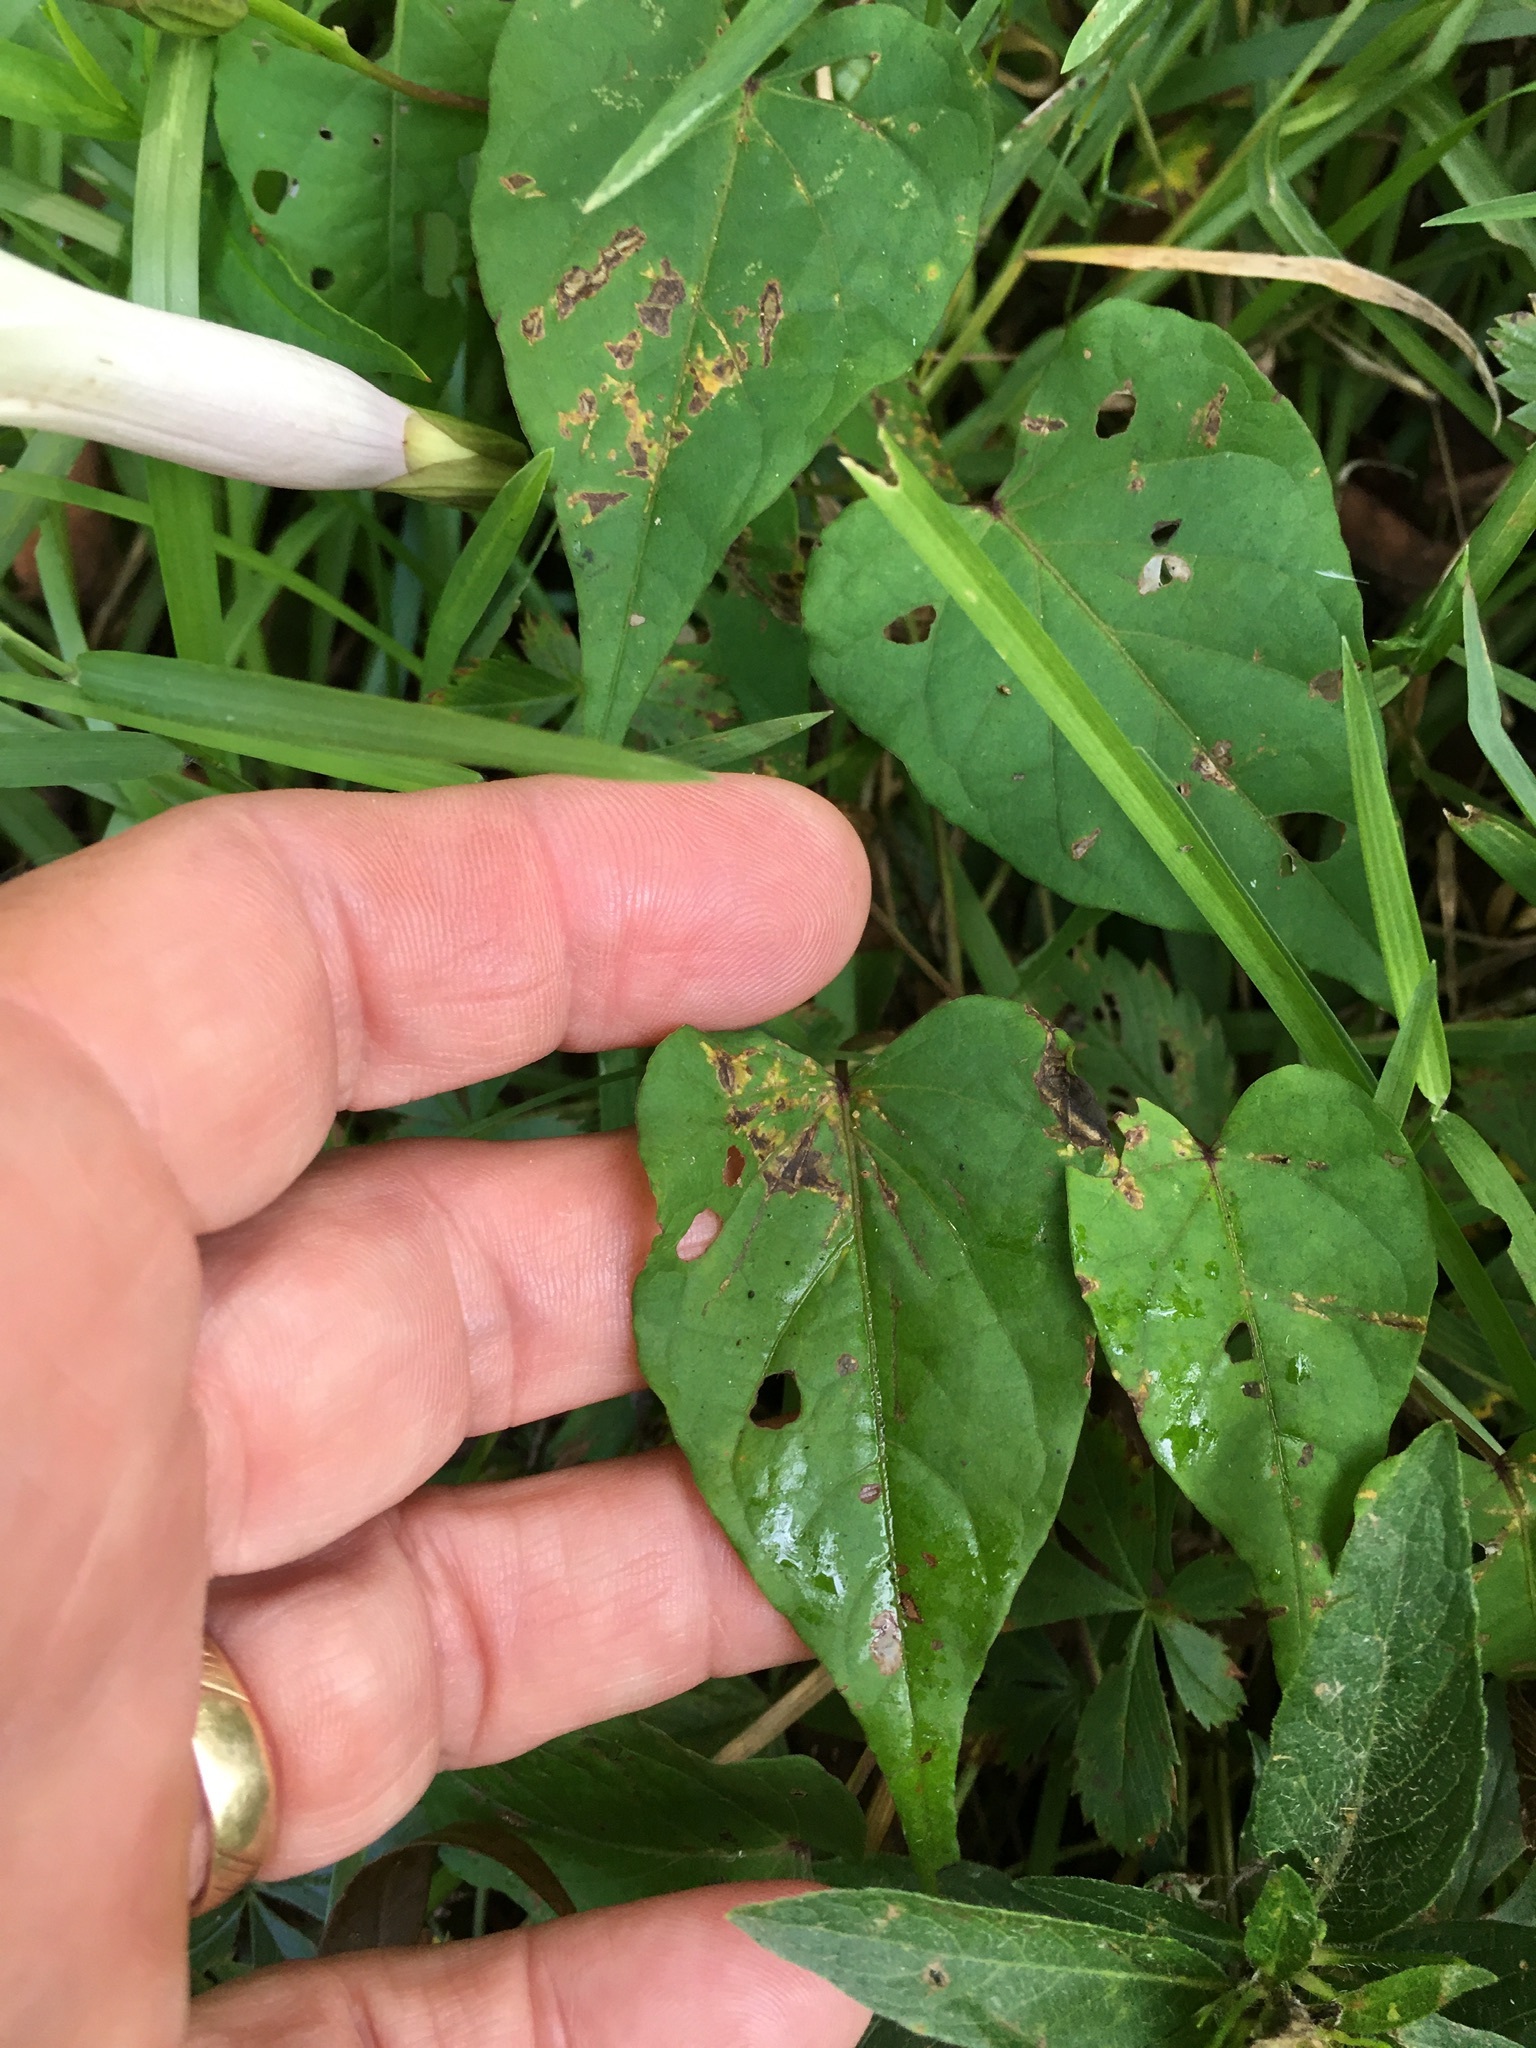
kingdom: Plantae
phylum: Tracheophyta
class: Magnoliopsida
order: Solanales
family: Convolvulaceae
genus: Ipomoea
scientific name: Ipomoea pandurata
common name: Man-of-the-earth
